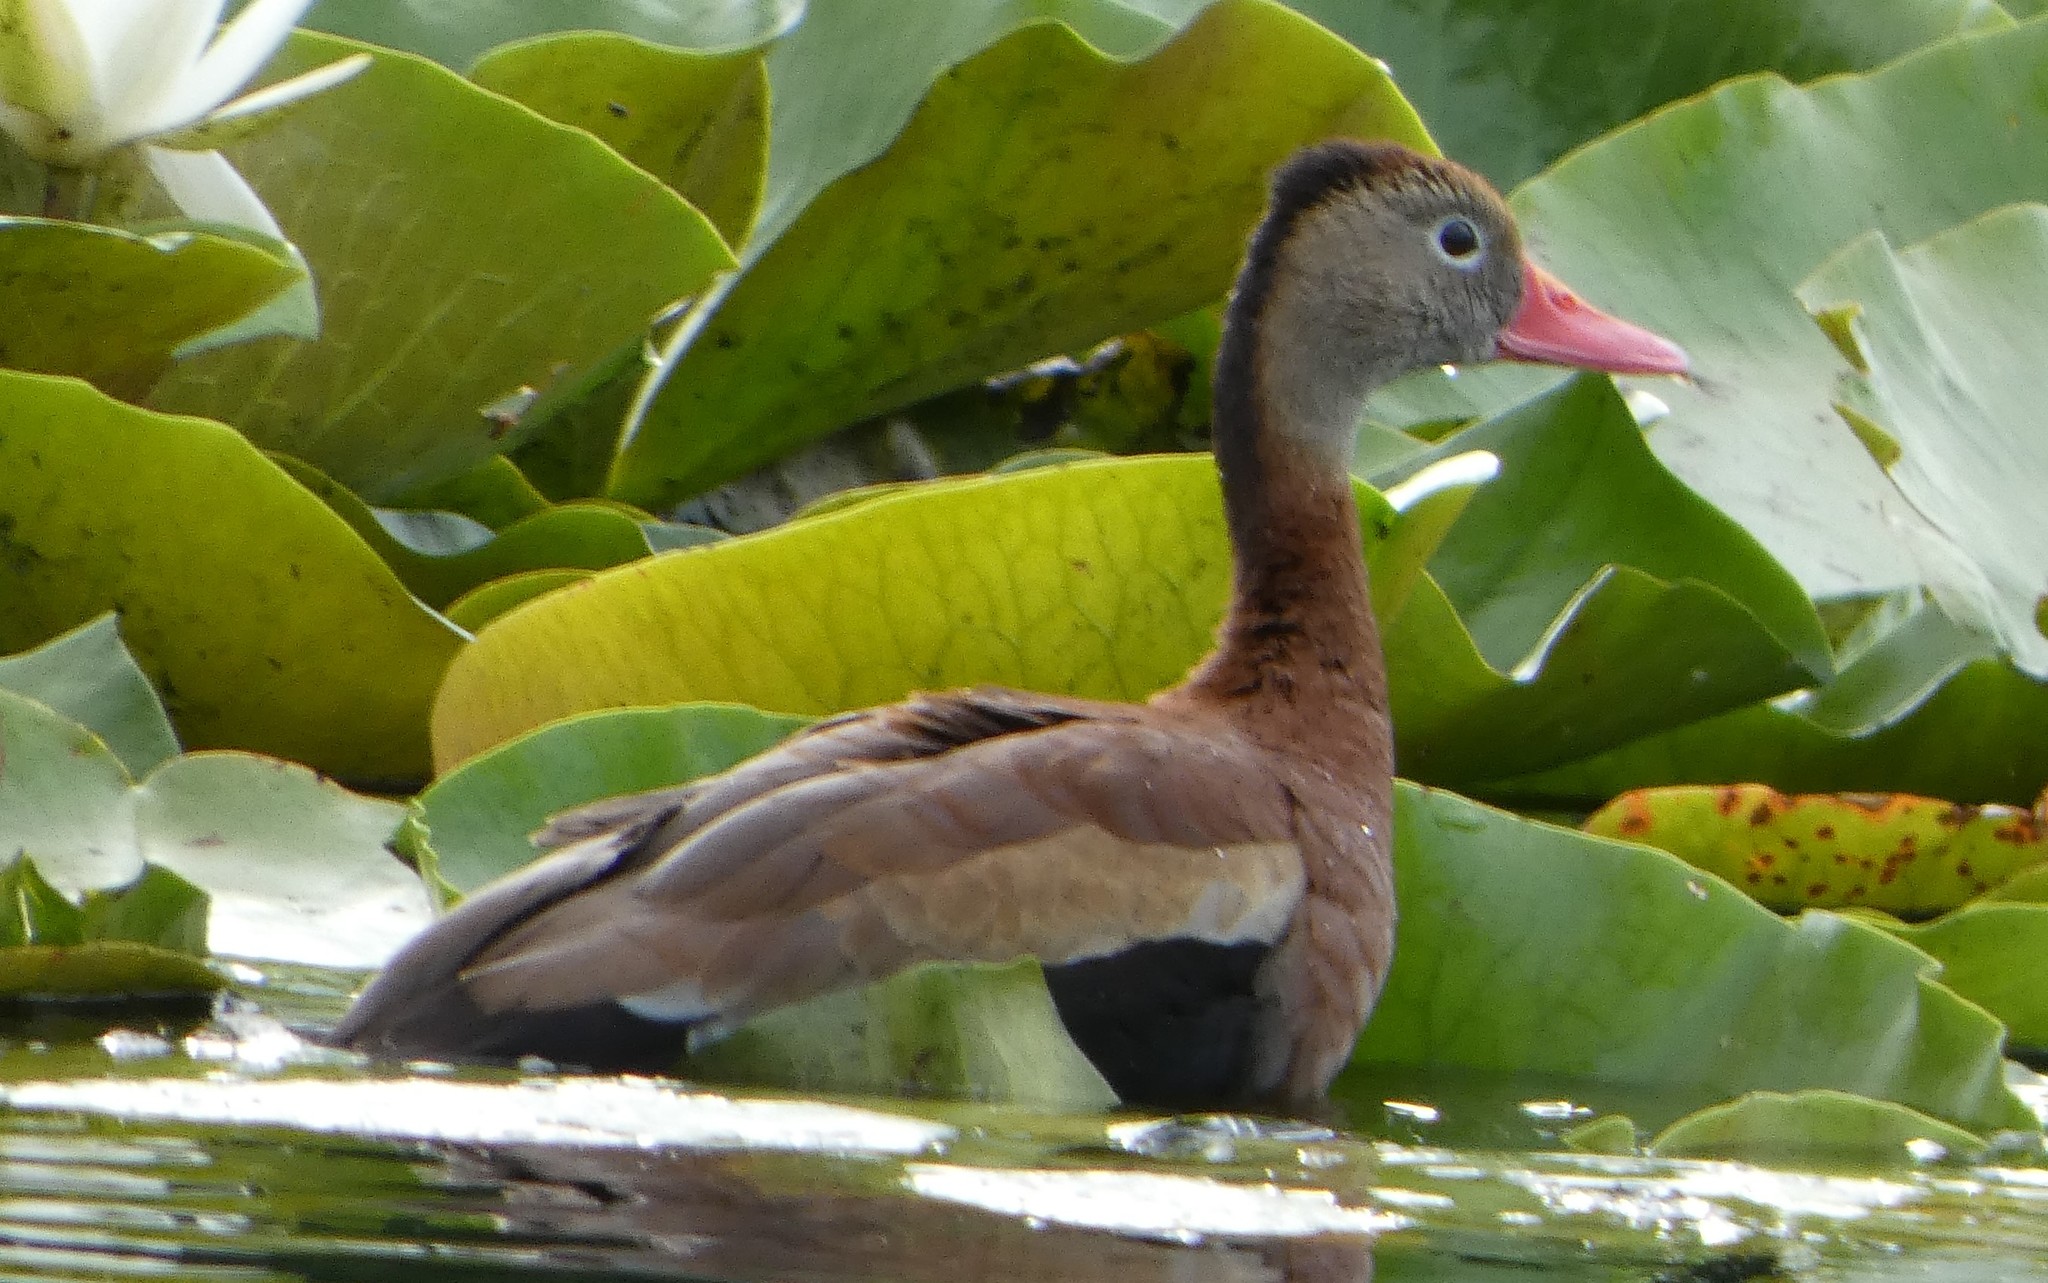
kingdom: Animalia
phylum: Chordata
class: Aves
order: Anseriformes
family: Anatidae
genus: Dendrocygna
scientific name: Dendrocygna autumnalis
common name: Black-bellied whistling duck
